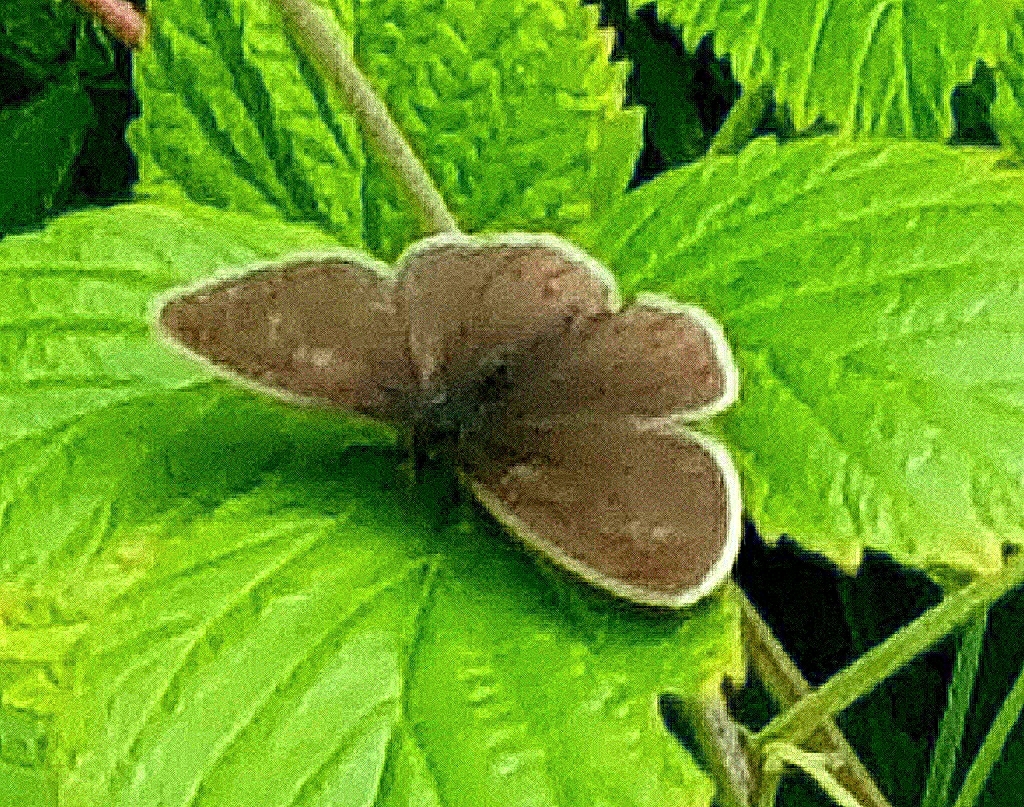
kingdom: Animalia
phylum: Arthropoda
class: Insecta
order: Lepidoptera
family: Nymphalidae
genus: Aphantopus
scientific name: Aphantopus hyperantus
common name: Ringlet
